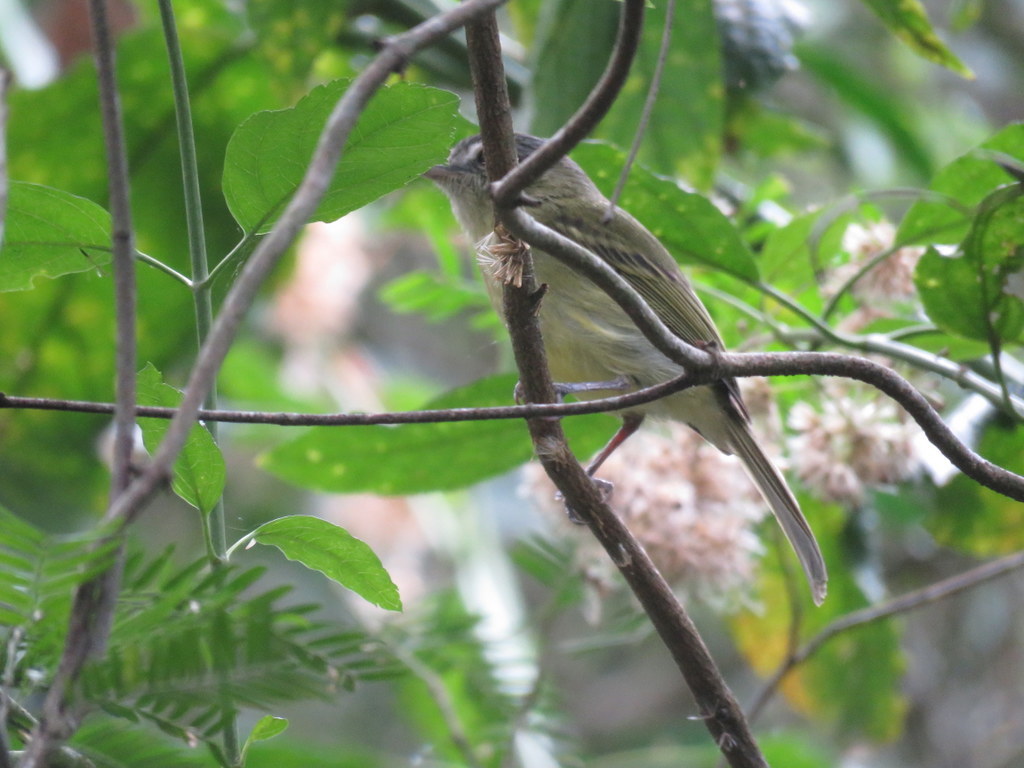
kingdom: Animalia
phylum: Chordata
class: Aves
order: Passeriformes
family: Tyrannidae
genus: Tolmomyias
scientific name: Tolmomyias sulphurescens
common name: Yellow-olive flycatcher
